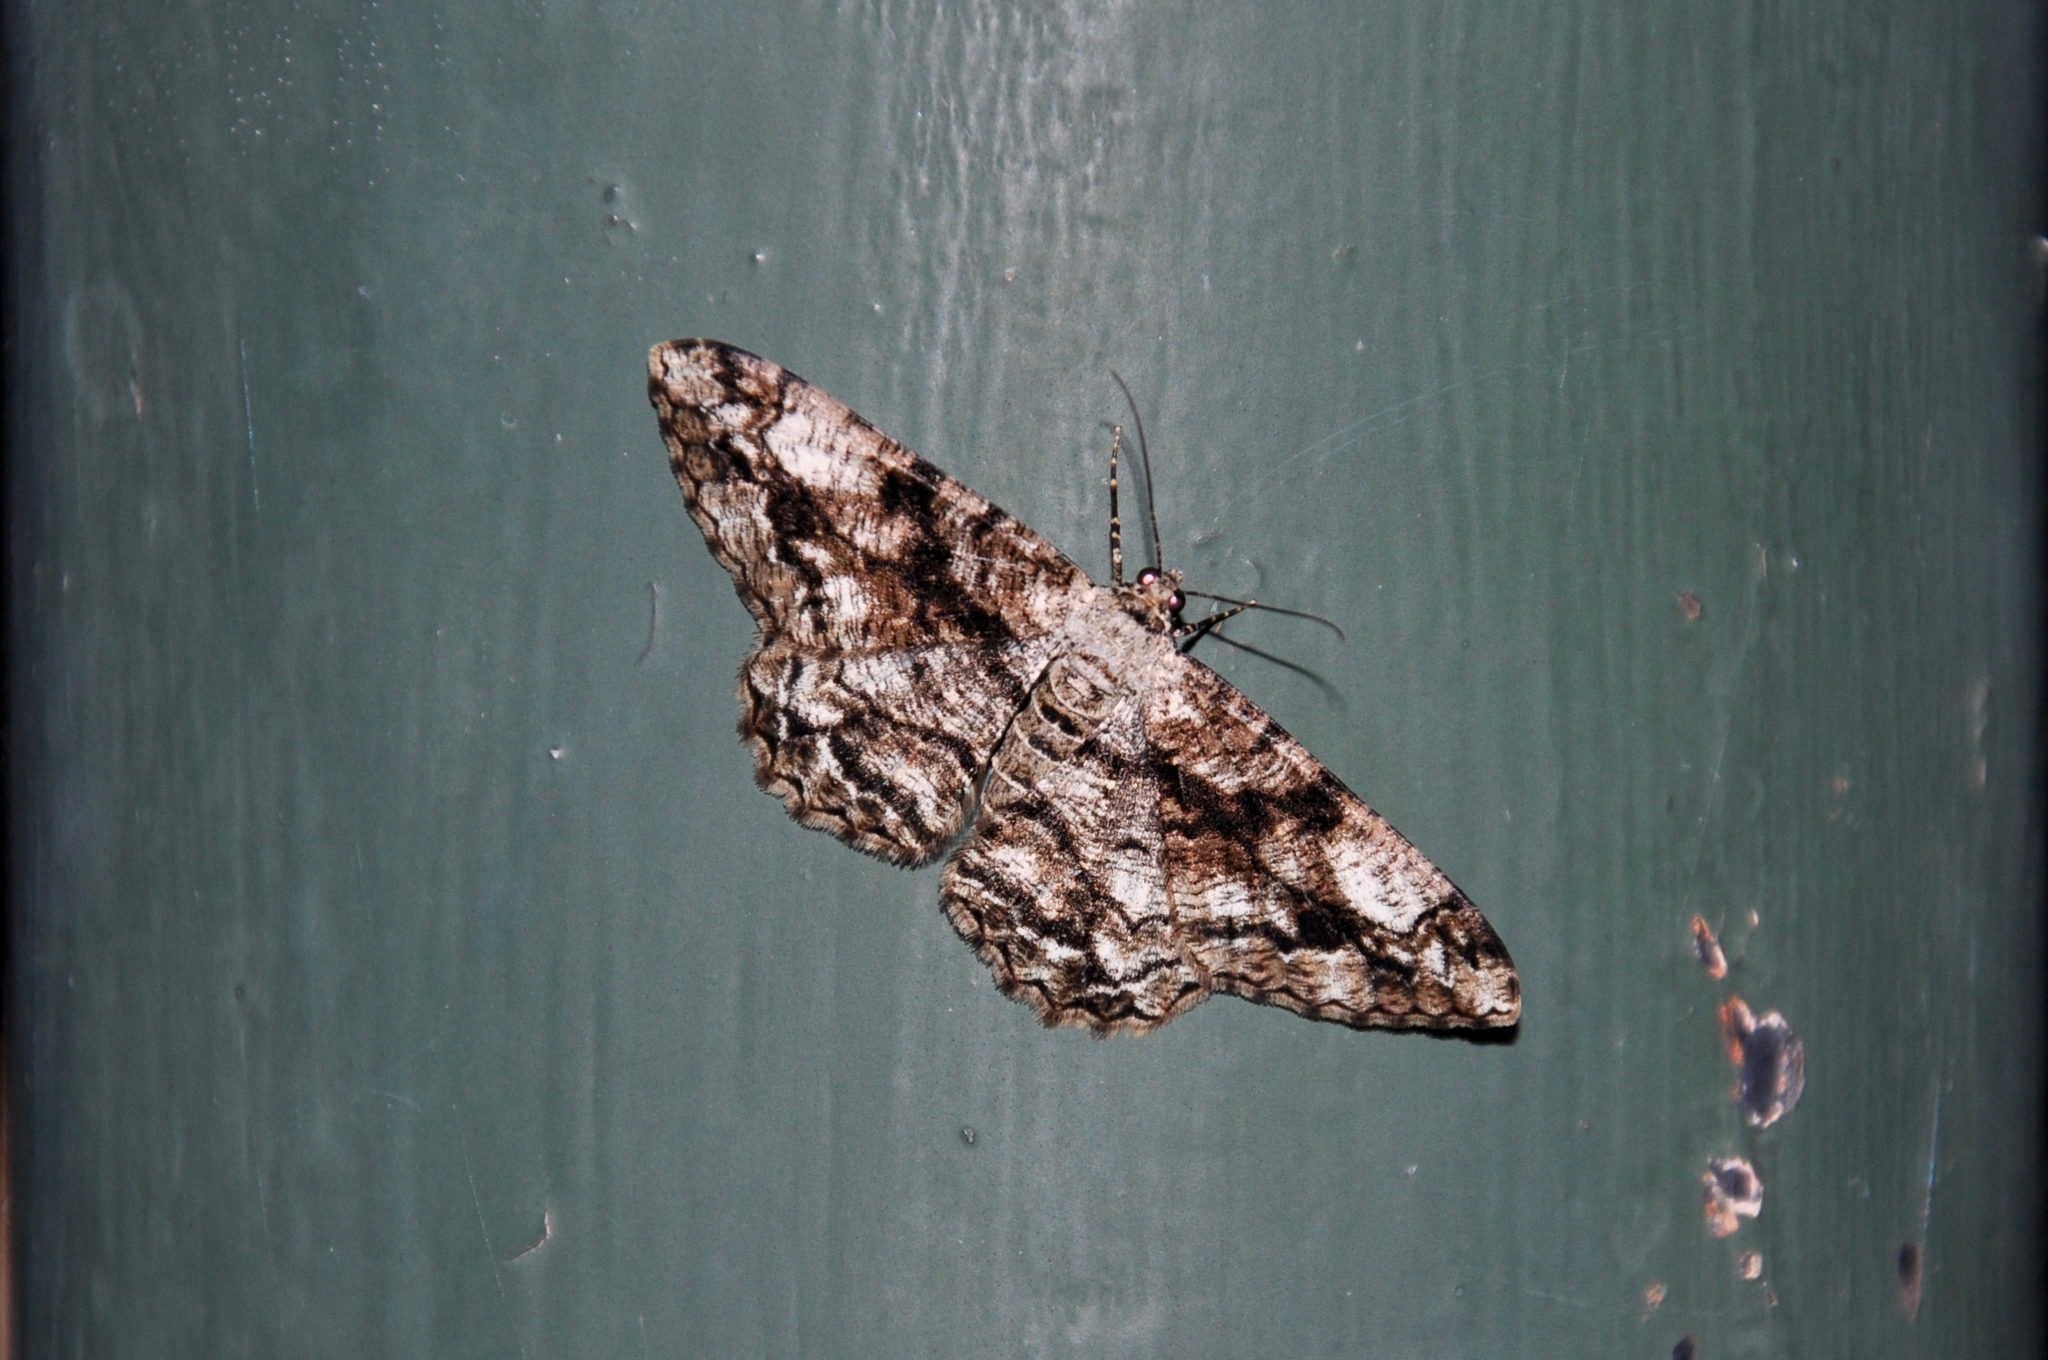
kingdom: Animalia
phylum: Arthropoda
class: Insecta
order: Lepidoptera
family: Geometridae
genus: Peribatodes
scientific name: Peribatodes umbraria
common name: Olive-tree beauty
